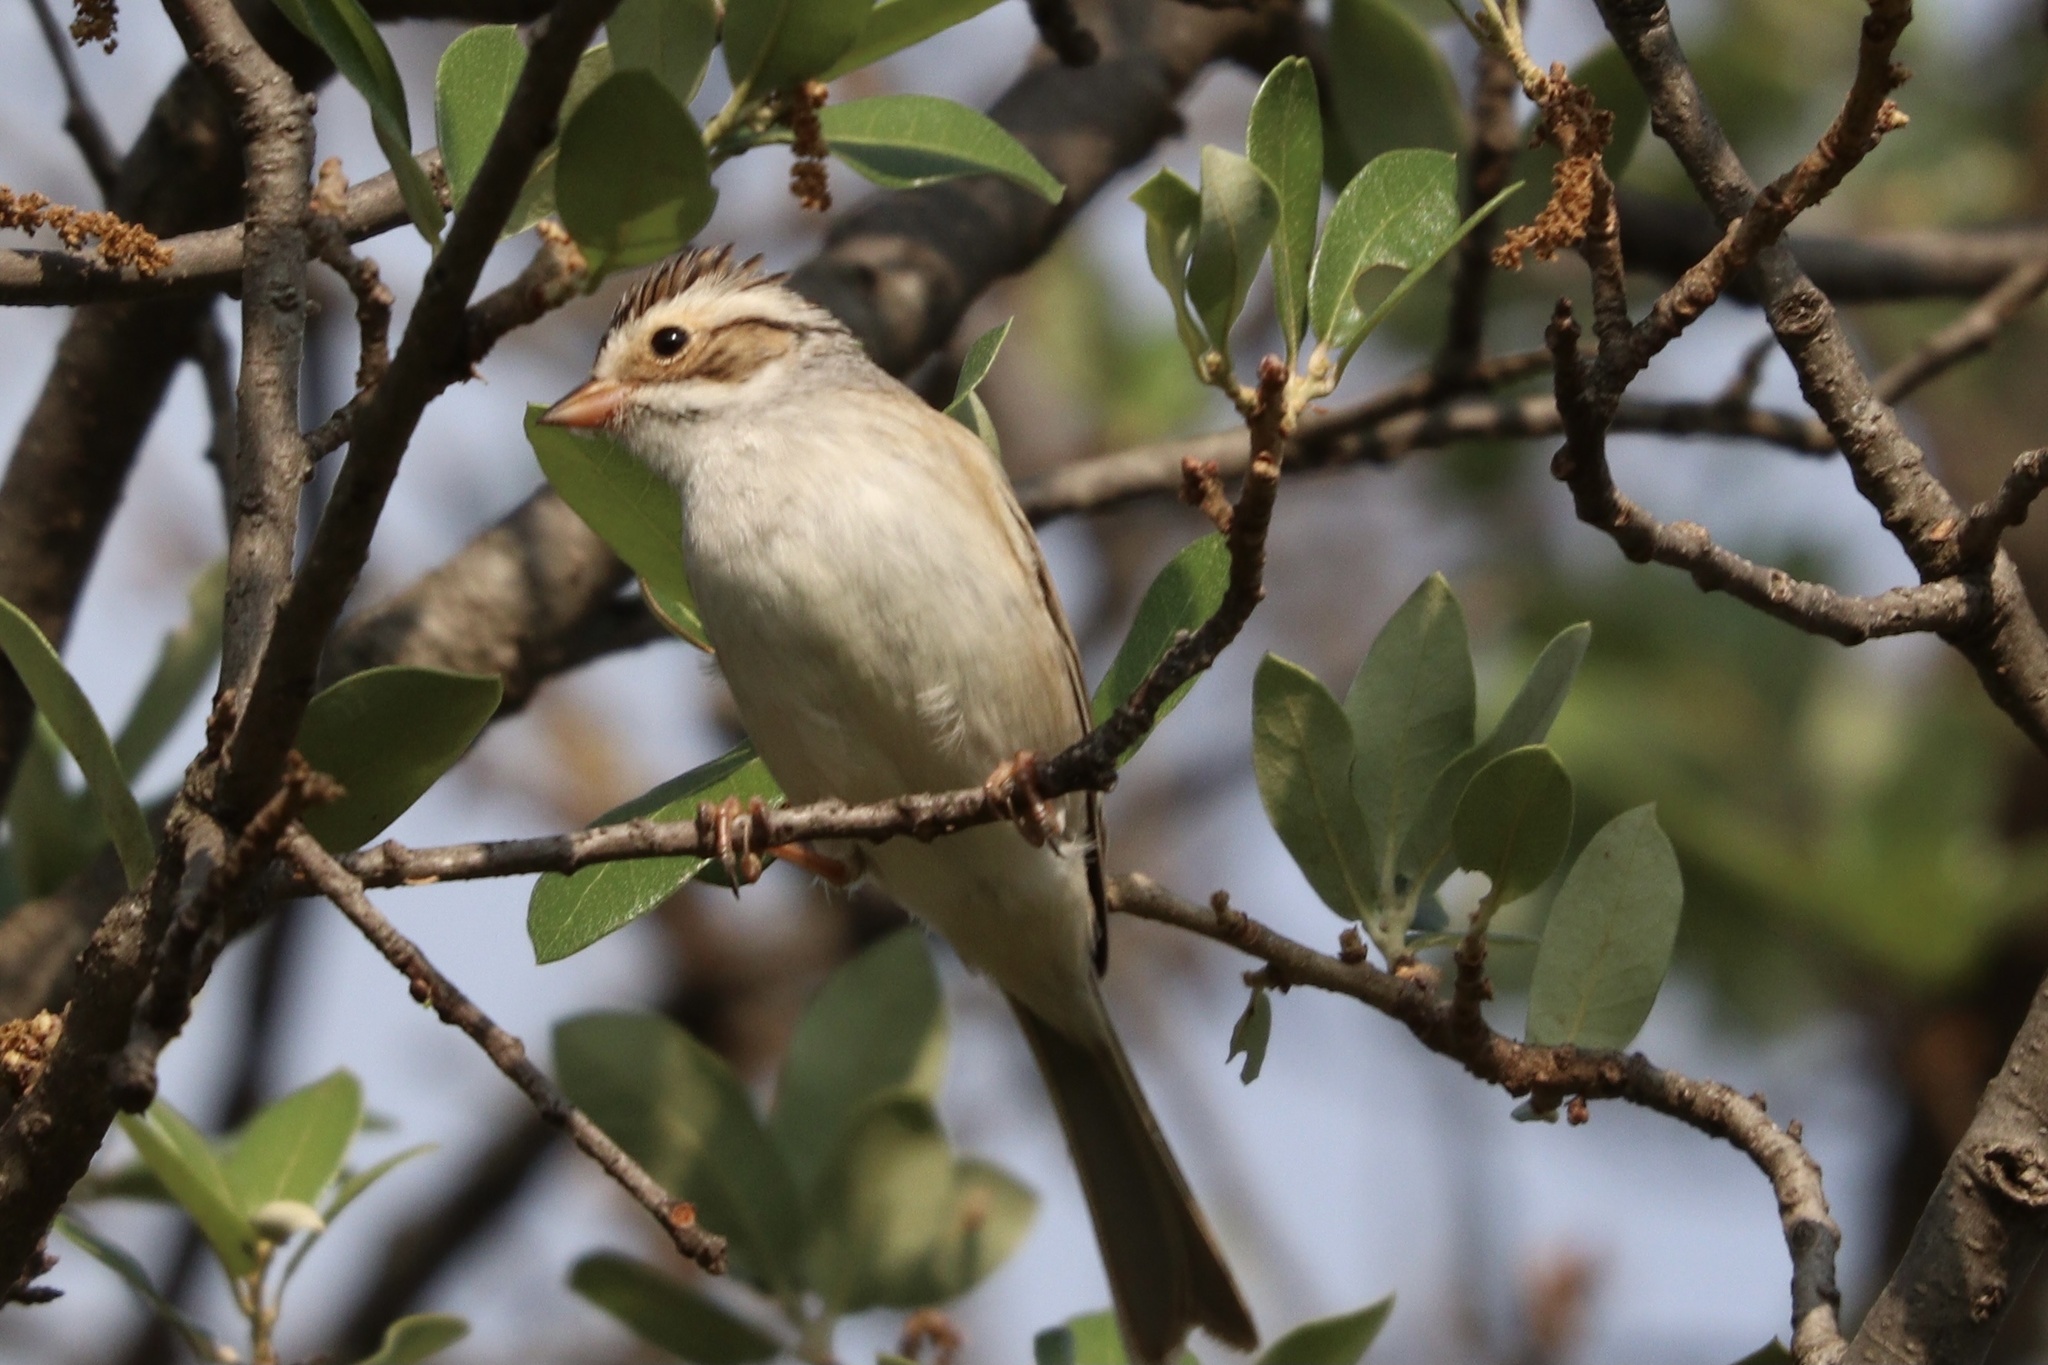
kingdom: Animalia
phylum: Chordata
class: Aves
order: Passeriformes
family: Passerellidae
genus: Spizella
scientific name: Spizella pallida
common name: Clay-colored sparrow
